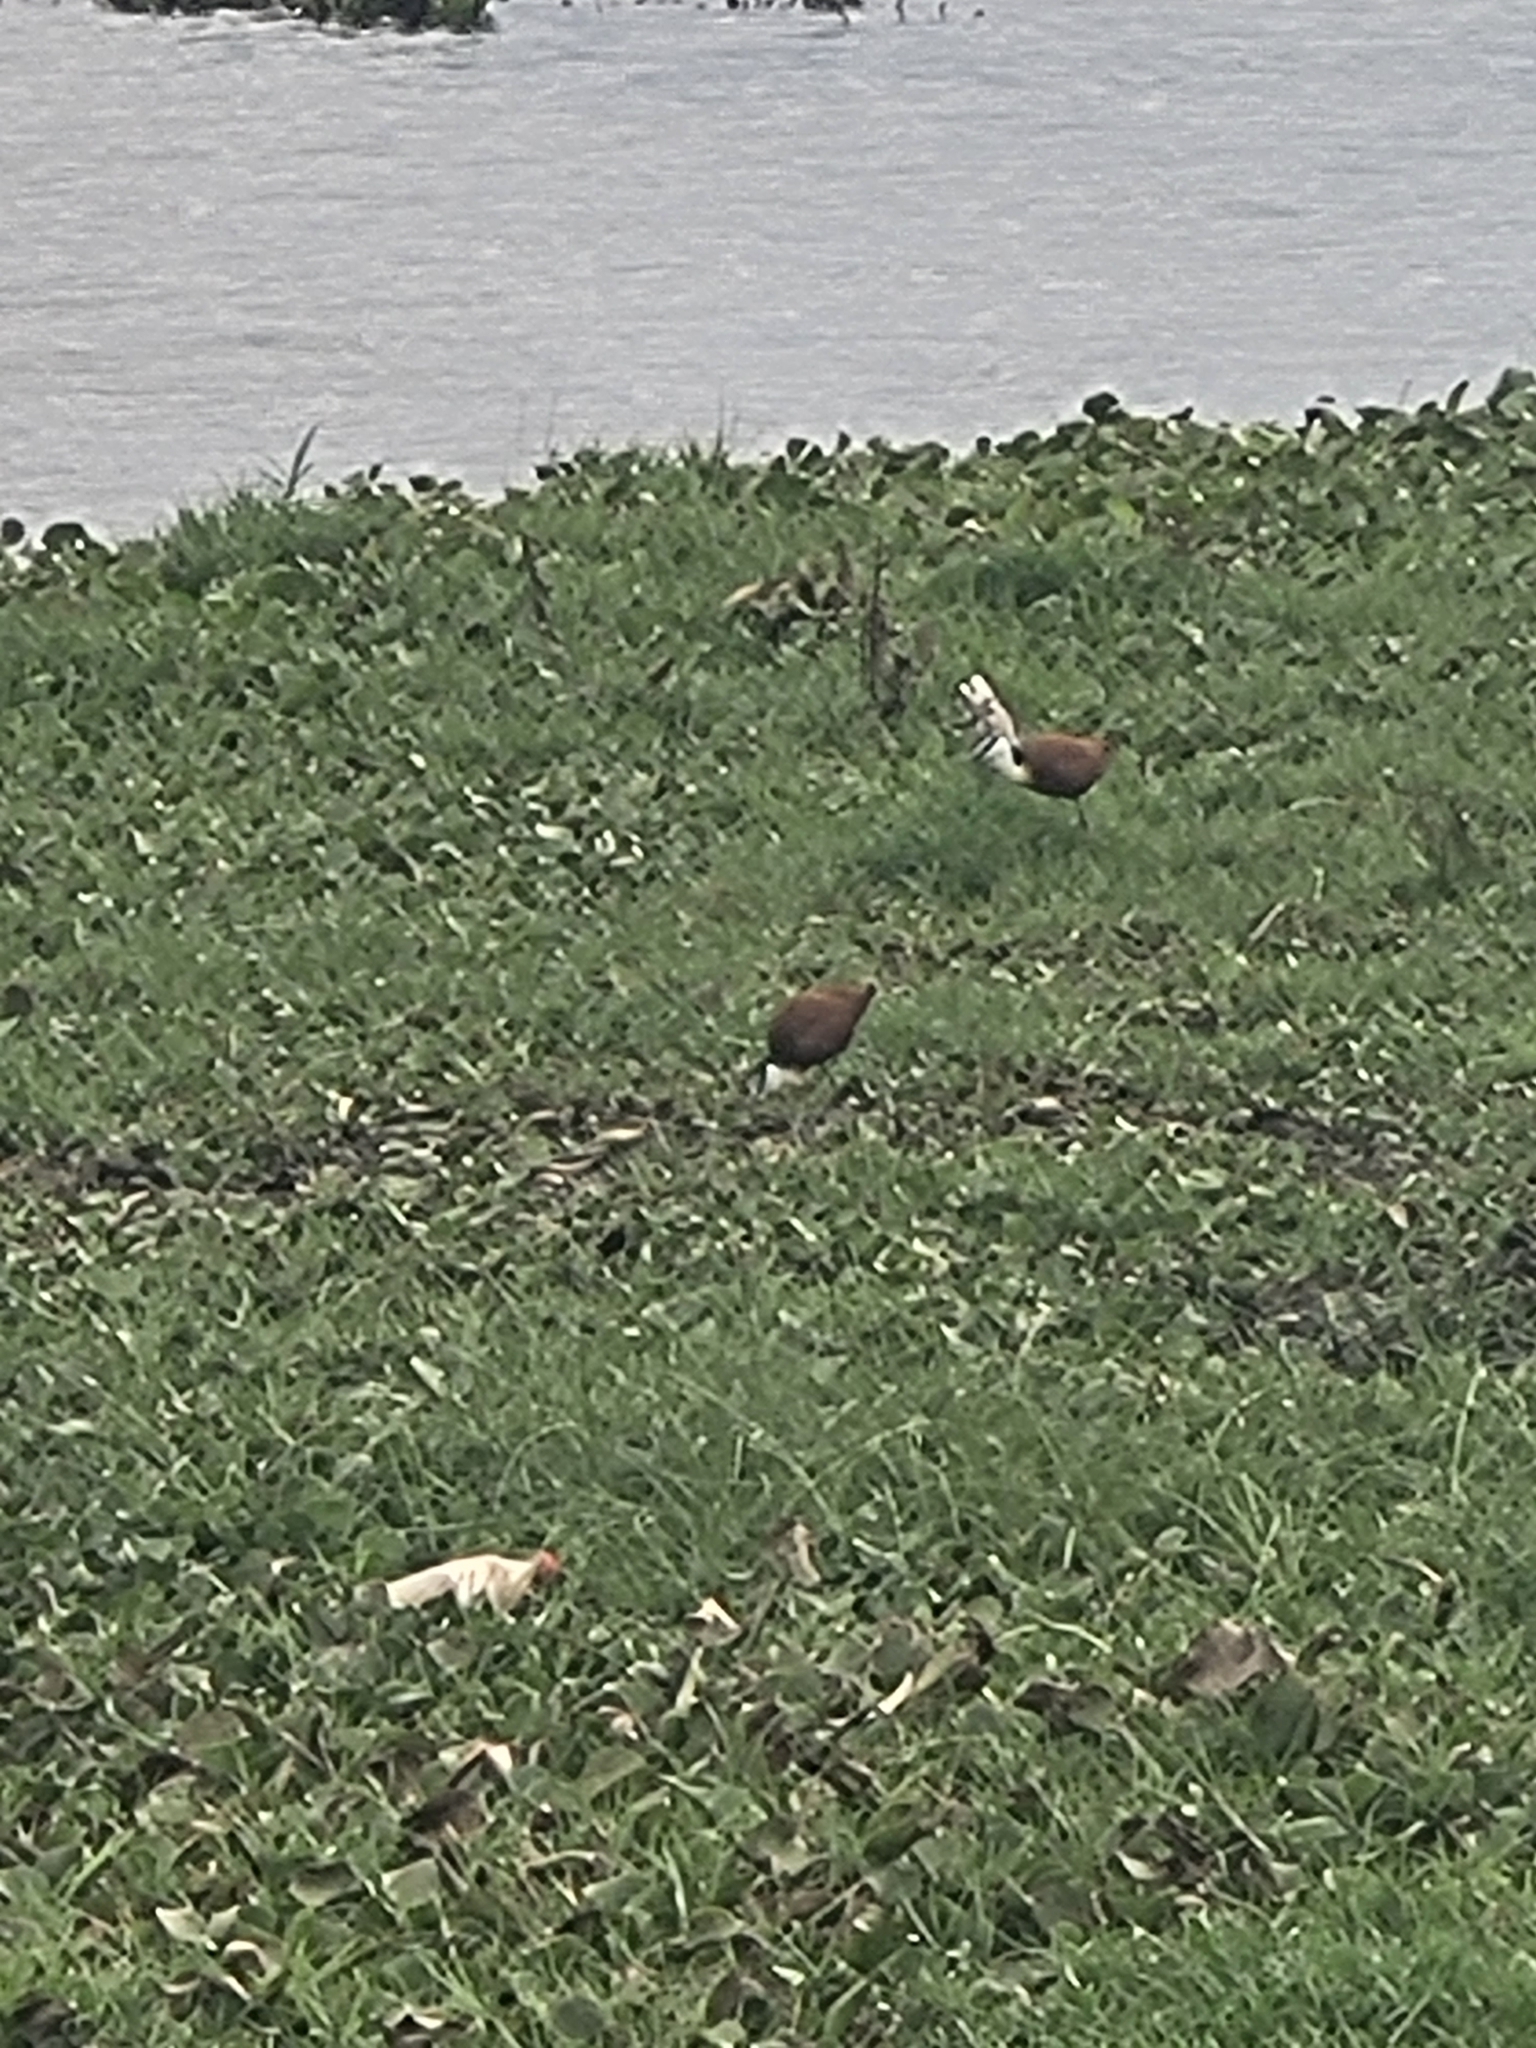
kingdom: Animalia
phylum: Chordata
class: Aves
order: Charadriiformes
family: Jacanidae
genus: Actophilornis
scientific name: Actophilornis africanus
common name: African jacana
